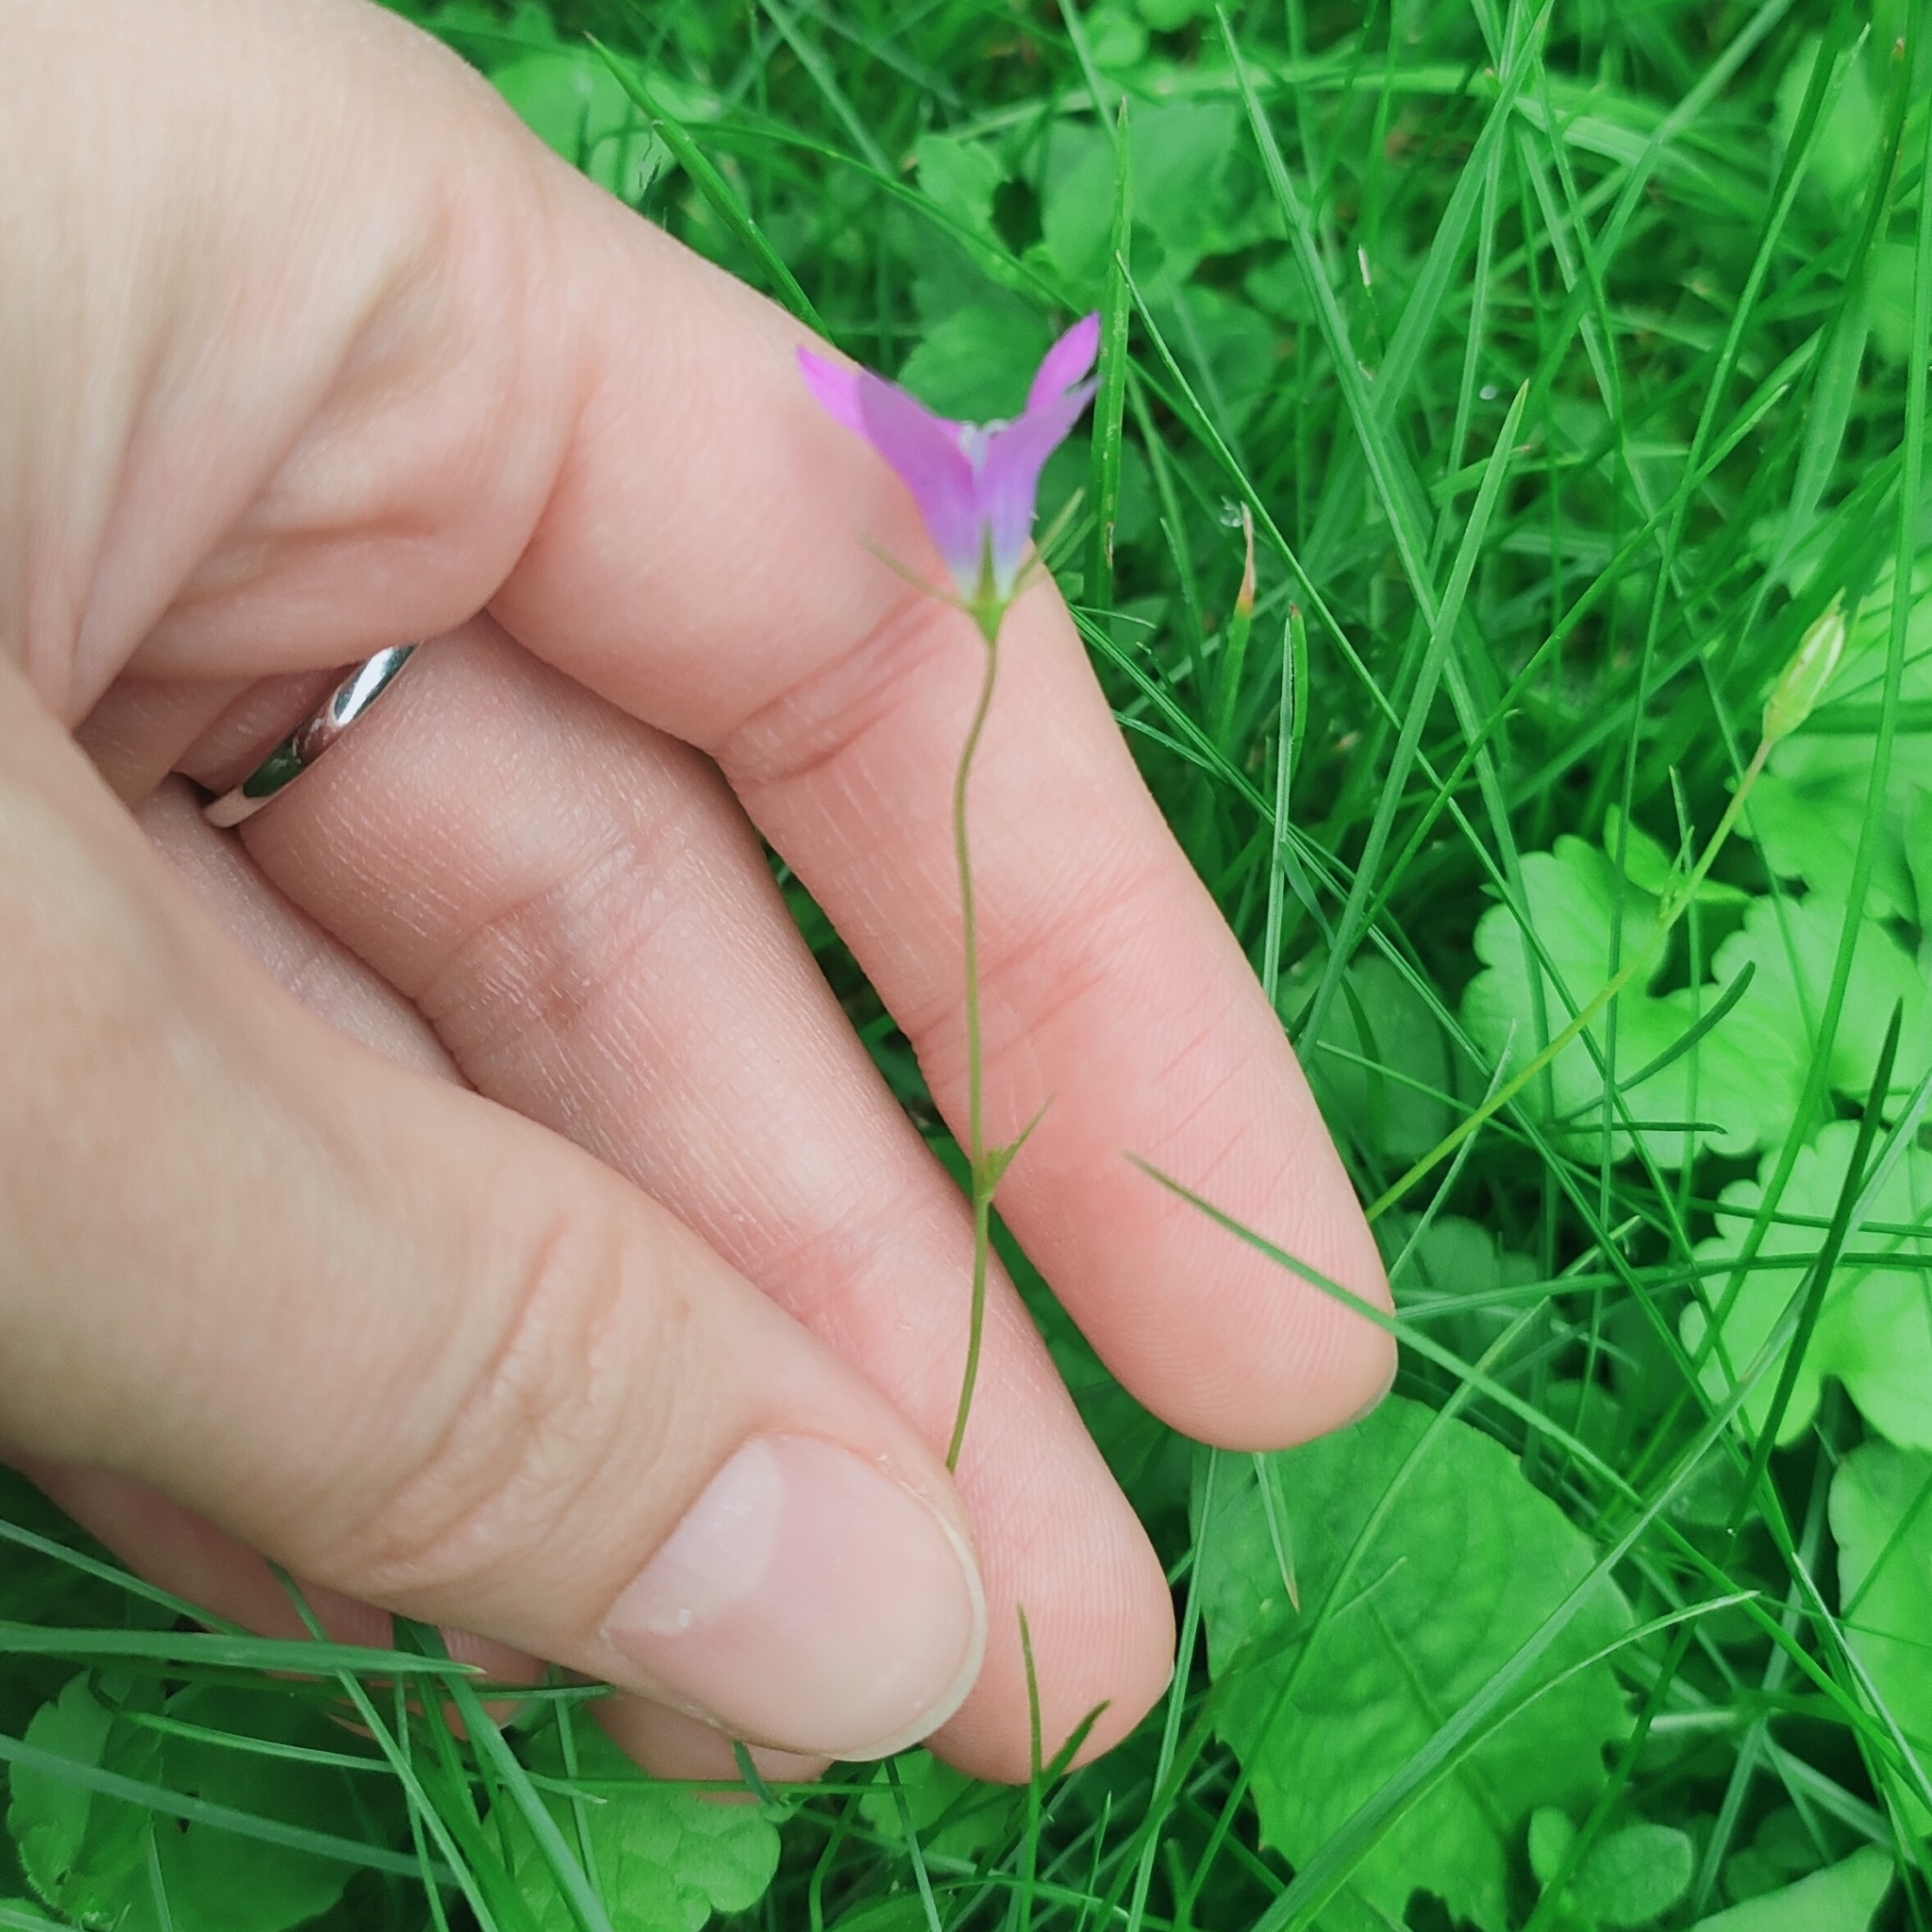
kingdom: Plantae
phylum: Tracheophyta
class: Magnoliopsida
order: Asterales
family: Campanulaceae
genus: Campanula
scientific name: Campanula patula
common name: Spreading bellflower
